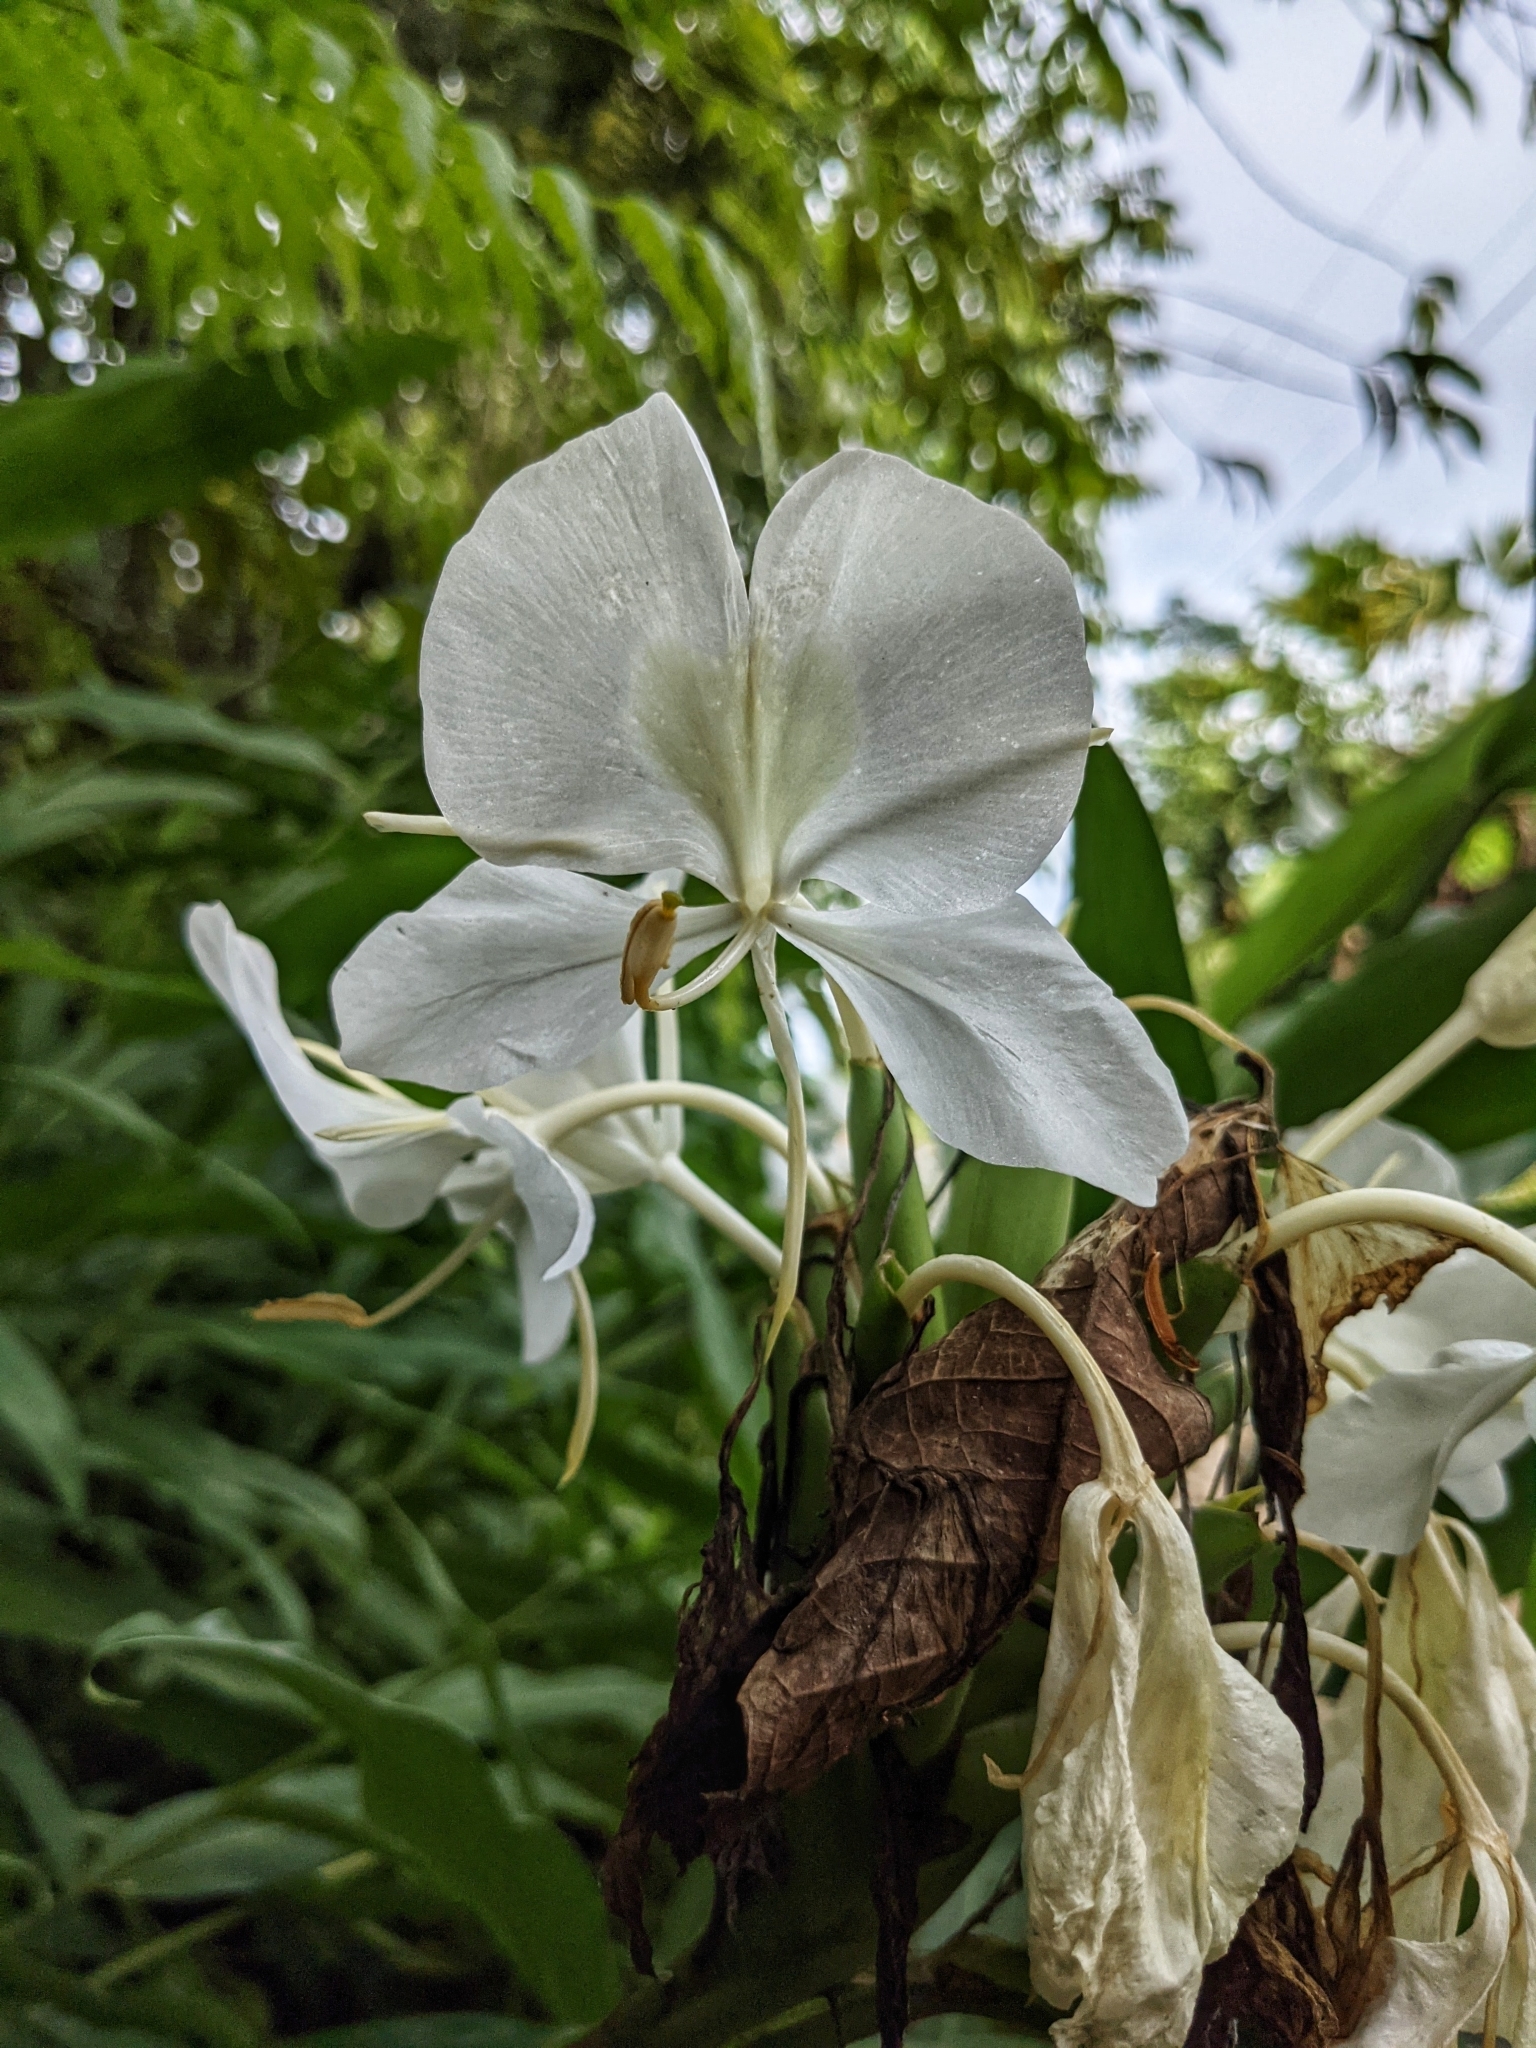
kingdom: Plantae
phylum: Tracheophyta
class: Liliopsida
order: Zingiberales
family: Zingiberaceae
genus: Hedychium
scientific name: Hedychium coronarium
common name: White garland-lily
